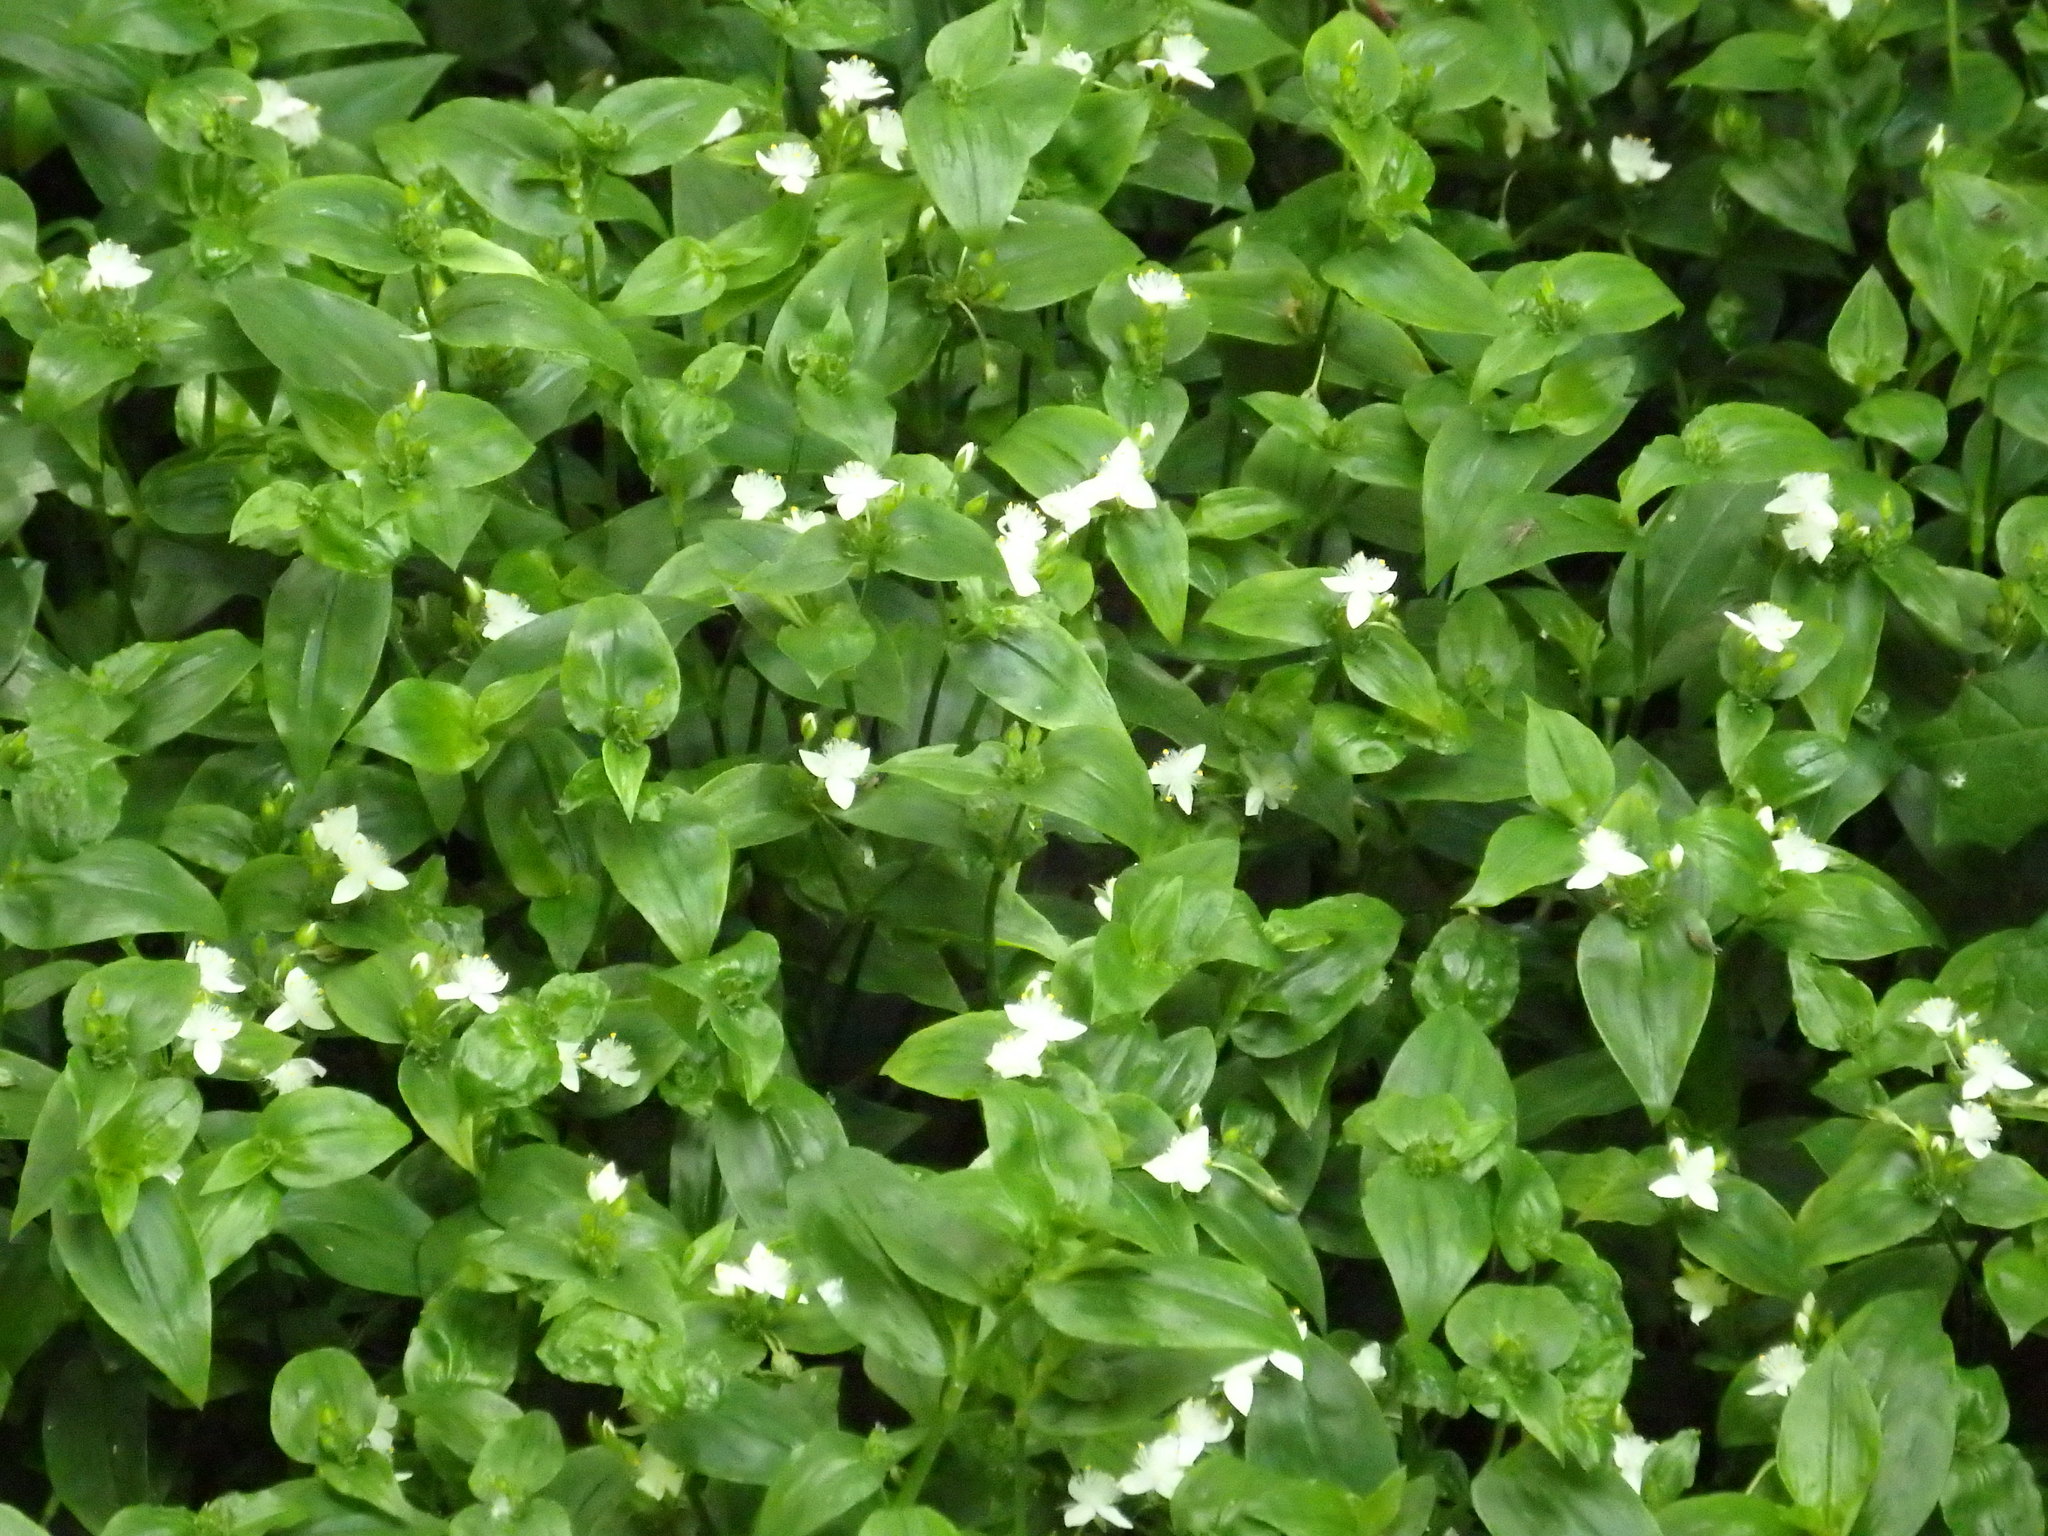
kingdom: Plantae
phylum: Tracheophyta
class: Liliopsida
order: Commelinales
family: Commelinaceae
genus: Tradescantia
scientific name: Tradescantia fluminensis
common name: Wandering-jew
